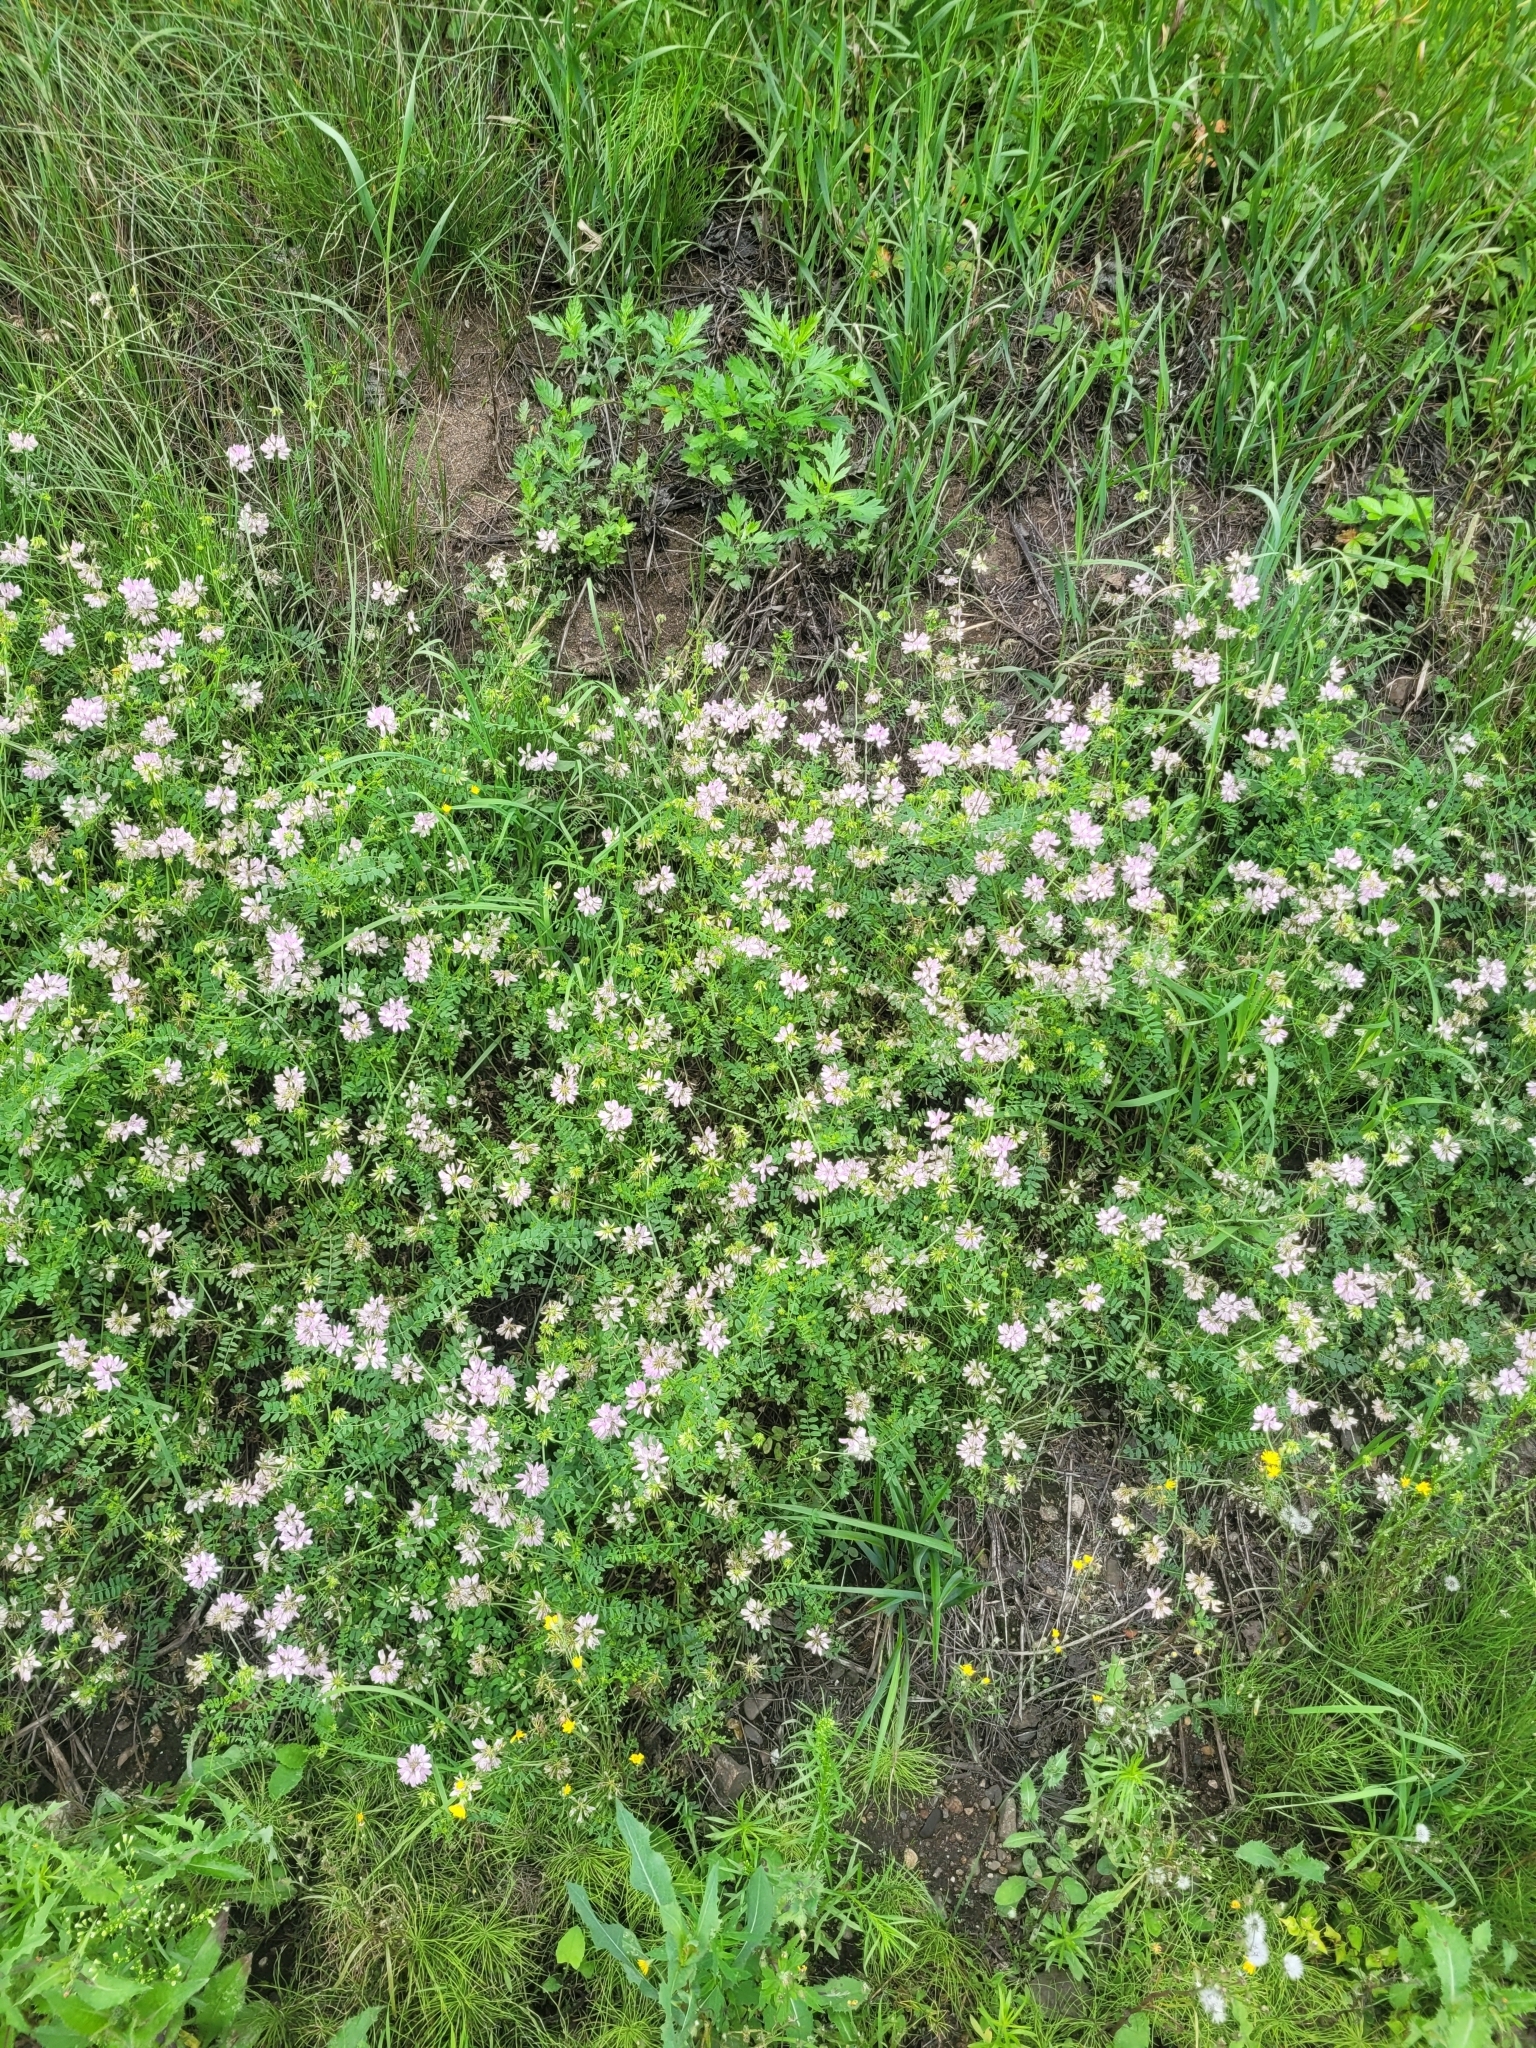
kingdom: Plantae
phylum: Tracheophyta
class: Magnoliopsida
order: Fabales
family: Fabaceae
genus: Coronilla
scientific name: Coronilla varia
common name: Crownvetch
